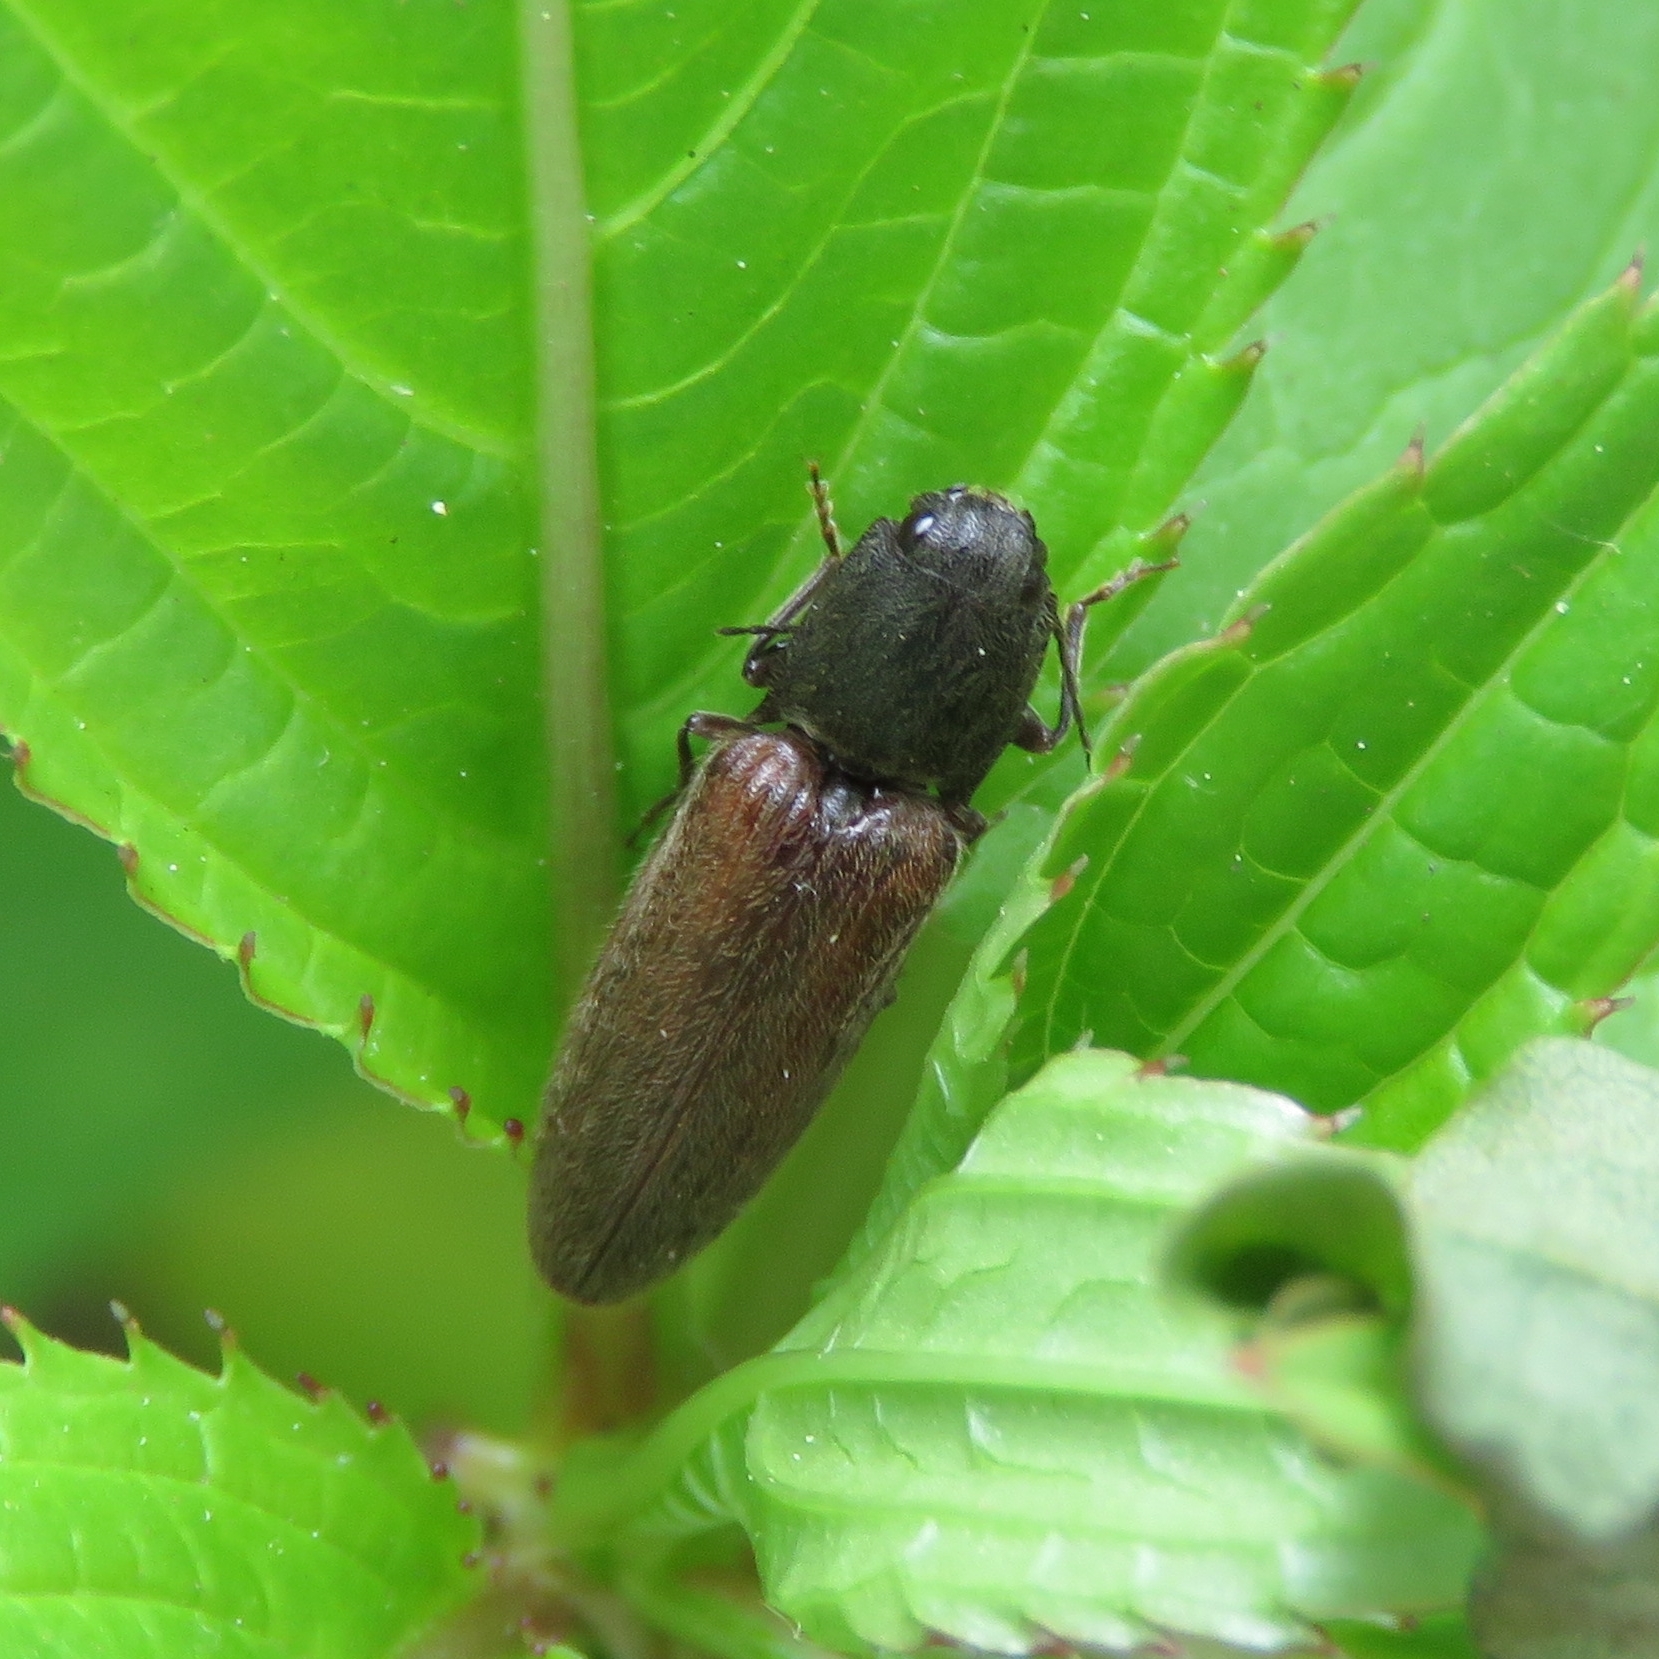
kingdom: Animalia
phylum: Arthropoda
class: Insecta
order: Coleoptera
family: Elateridae
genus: Athous
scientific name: Athous haemorrhoidalis
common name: Red-brown click beetle
